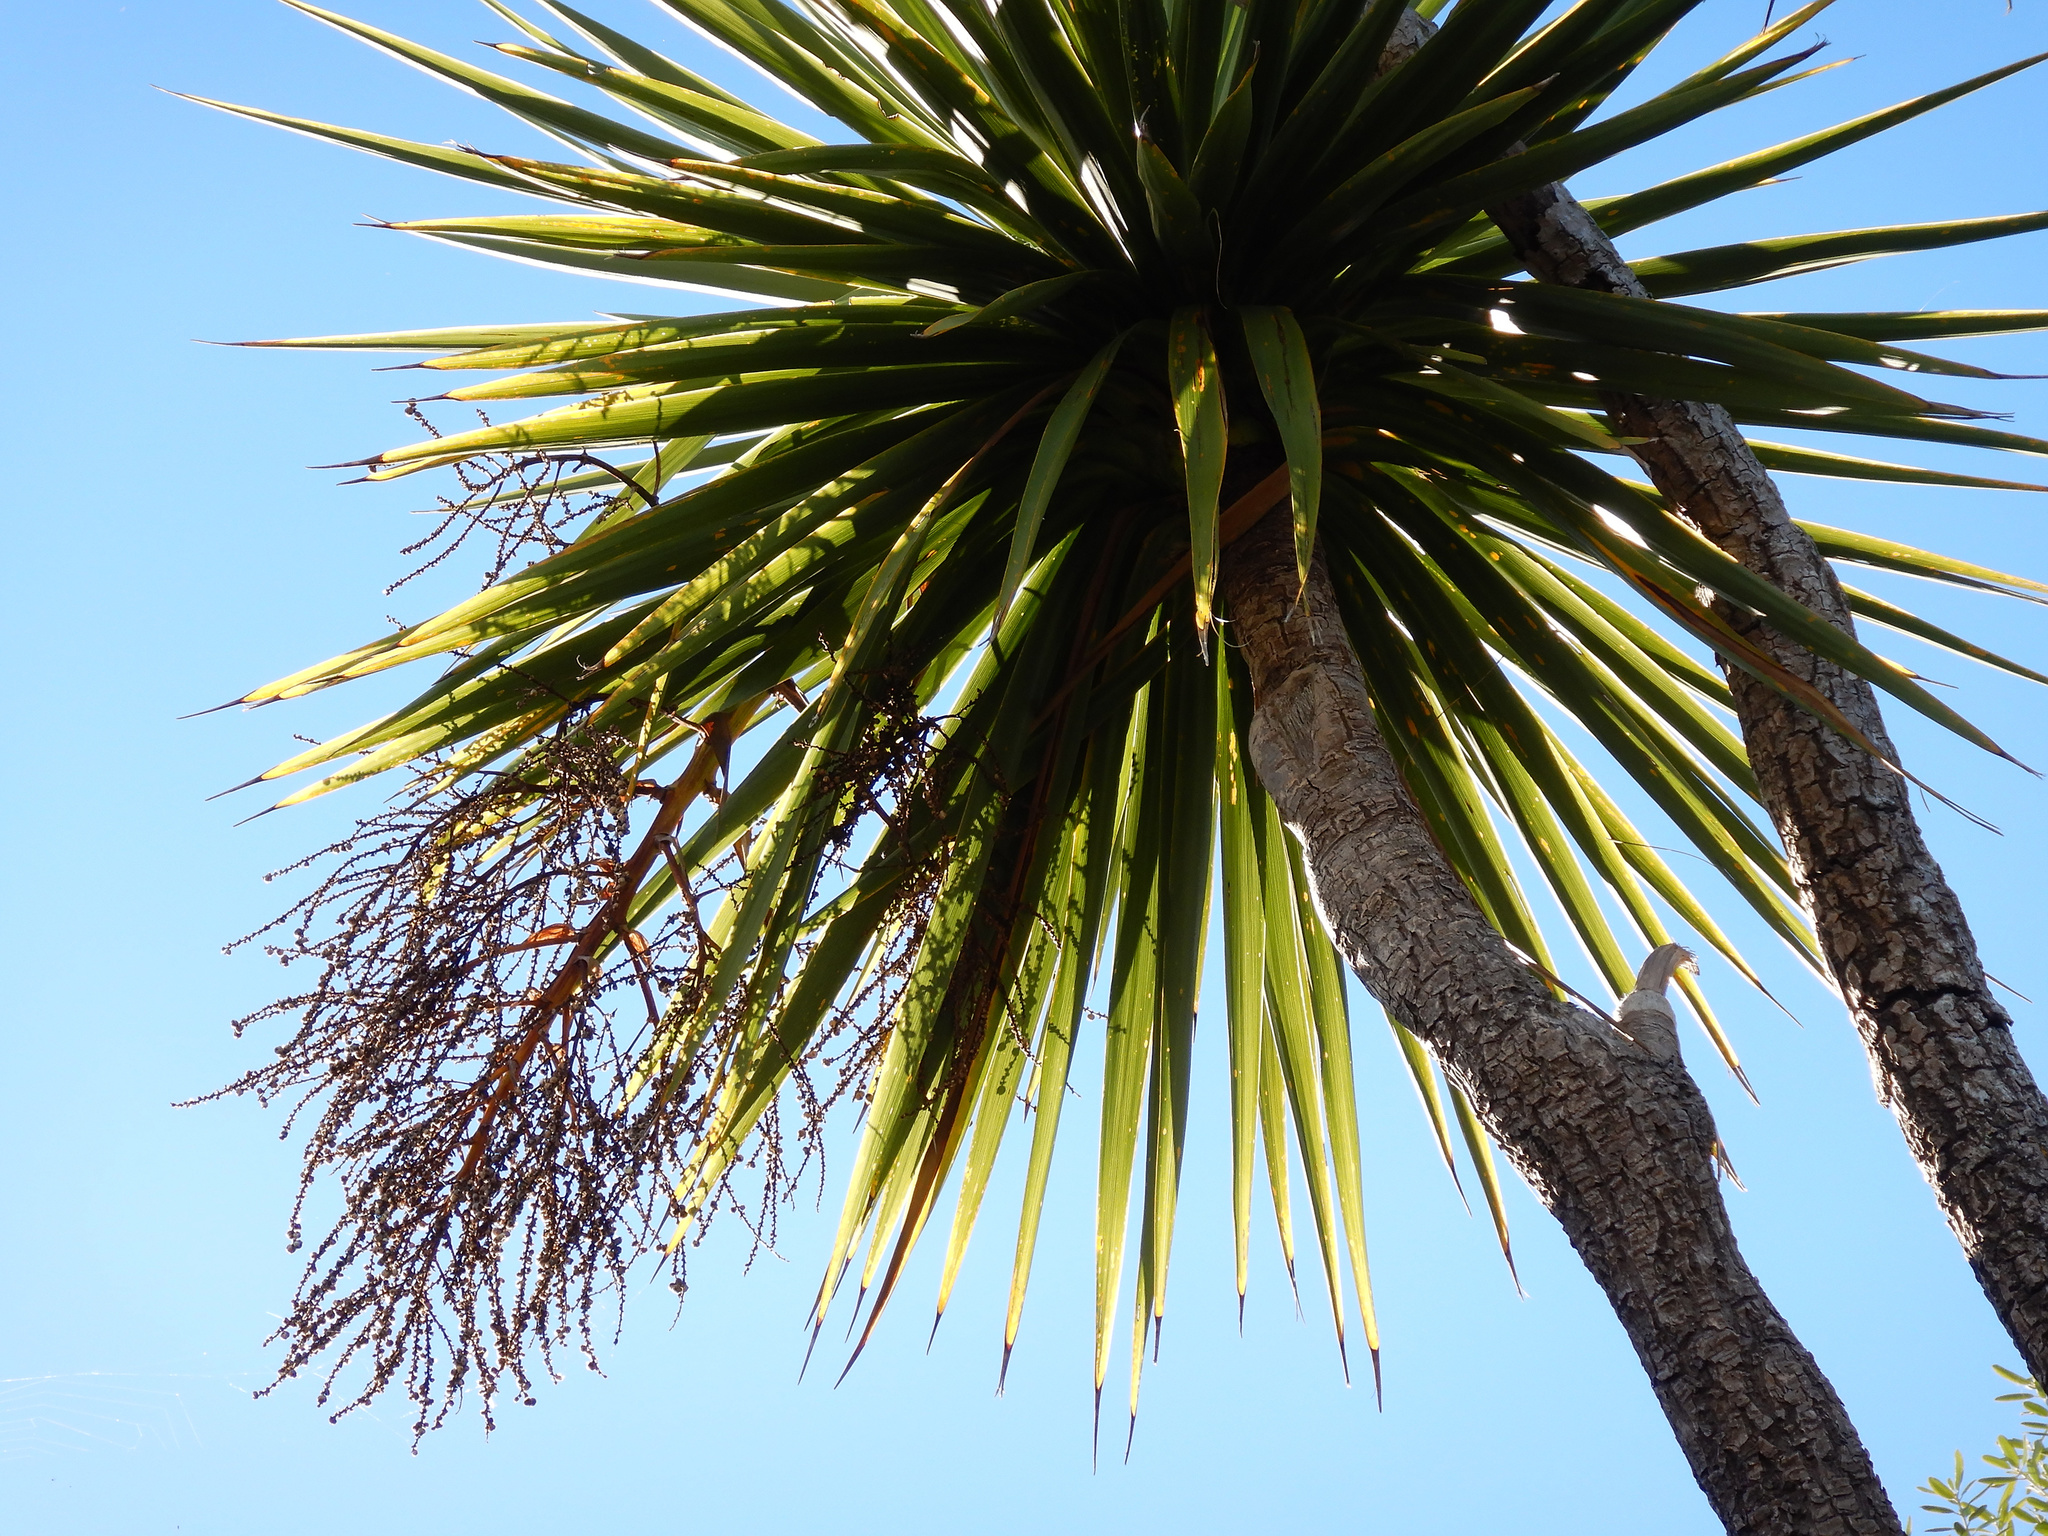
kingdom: Plantae
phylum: Tracheophyta
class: Liliopsida
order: Asparagales
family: Asparagaceae
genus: Cordyline
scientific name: Cordyline australis
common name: Cabbage-palm
